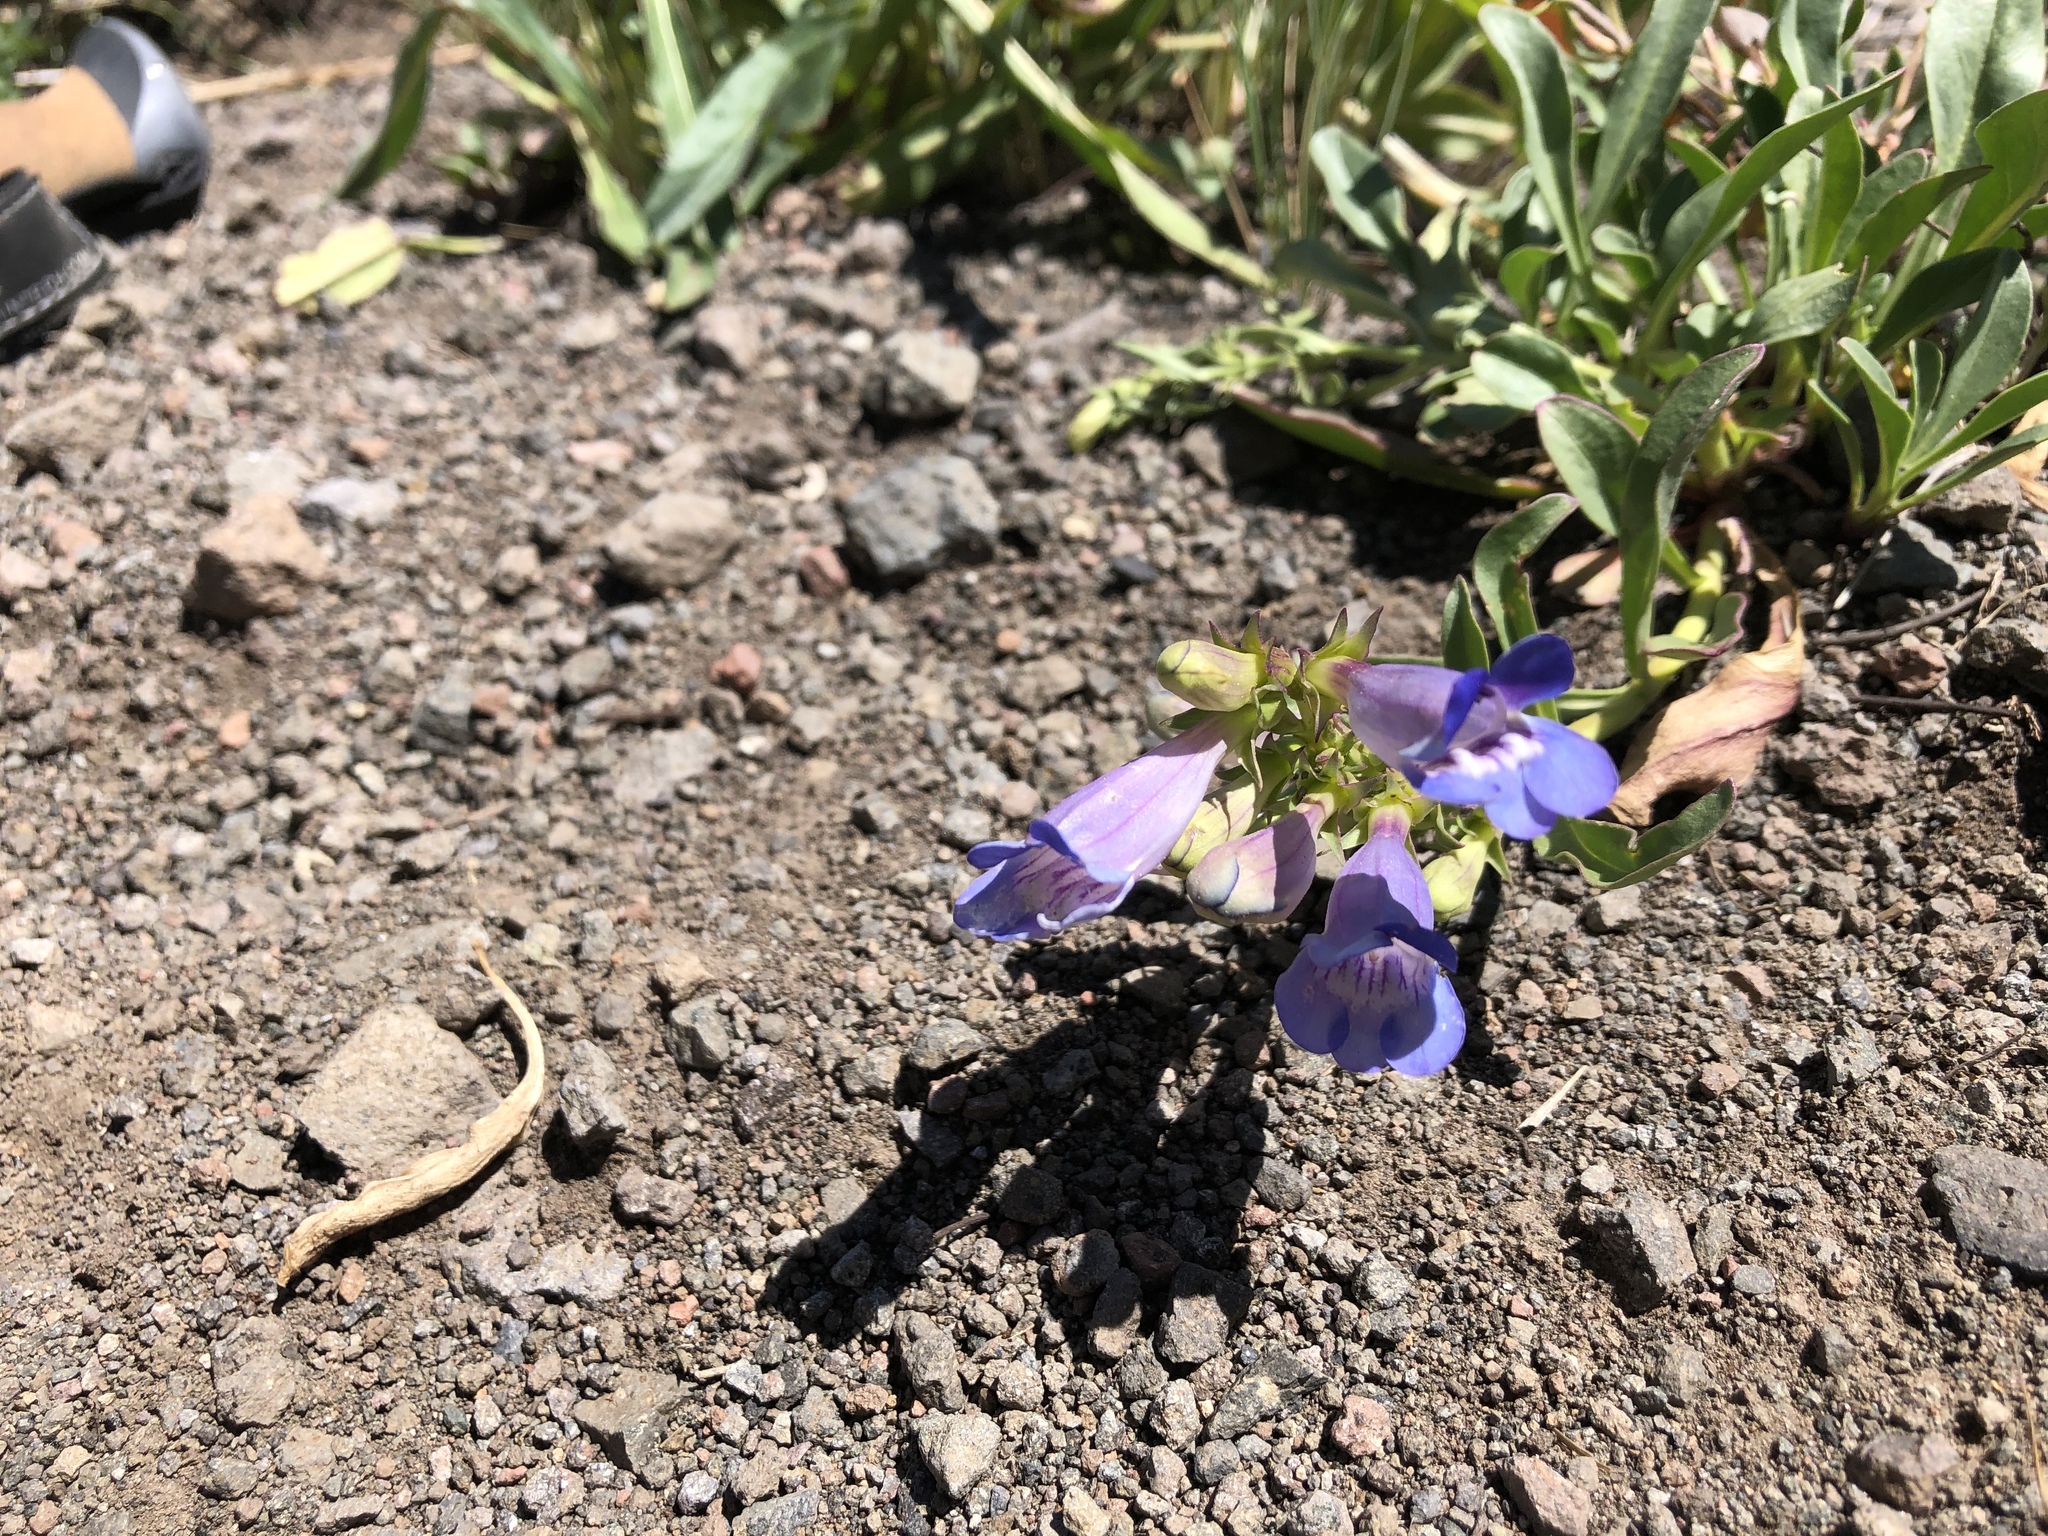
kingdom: Plantae
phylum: Tracheophyta
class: Magnoliopsida
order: Lamiales
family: Plantaginaceae
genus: Penstemon
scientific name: Penstemon speciosus
